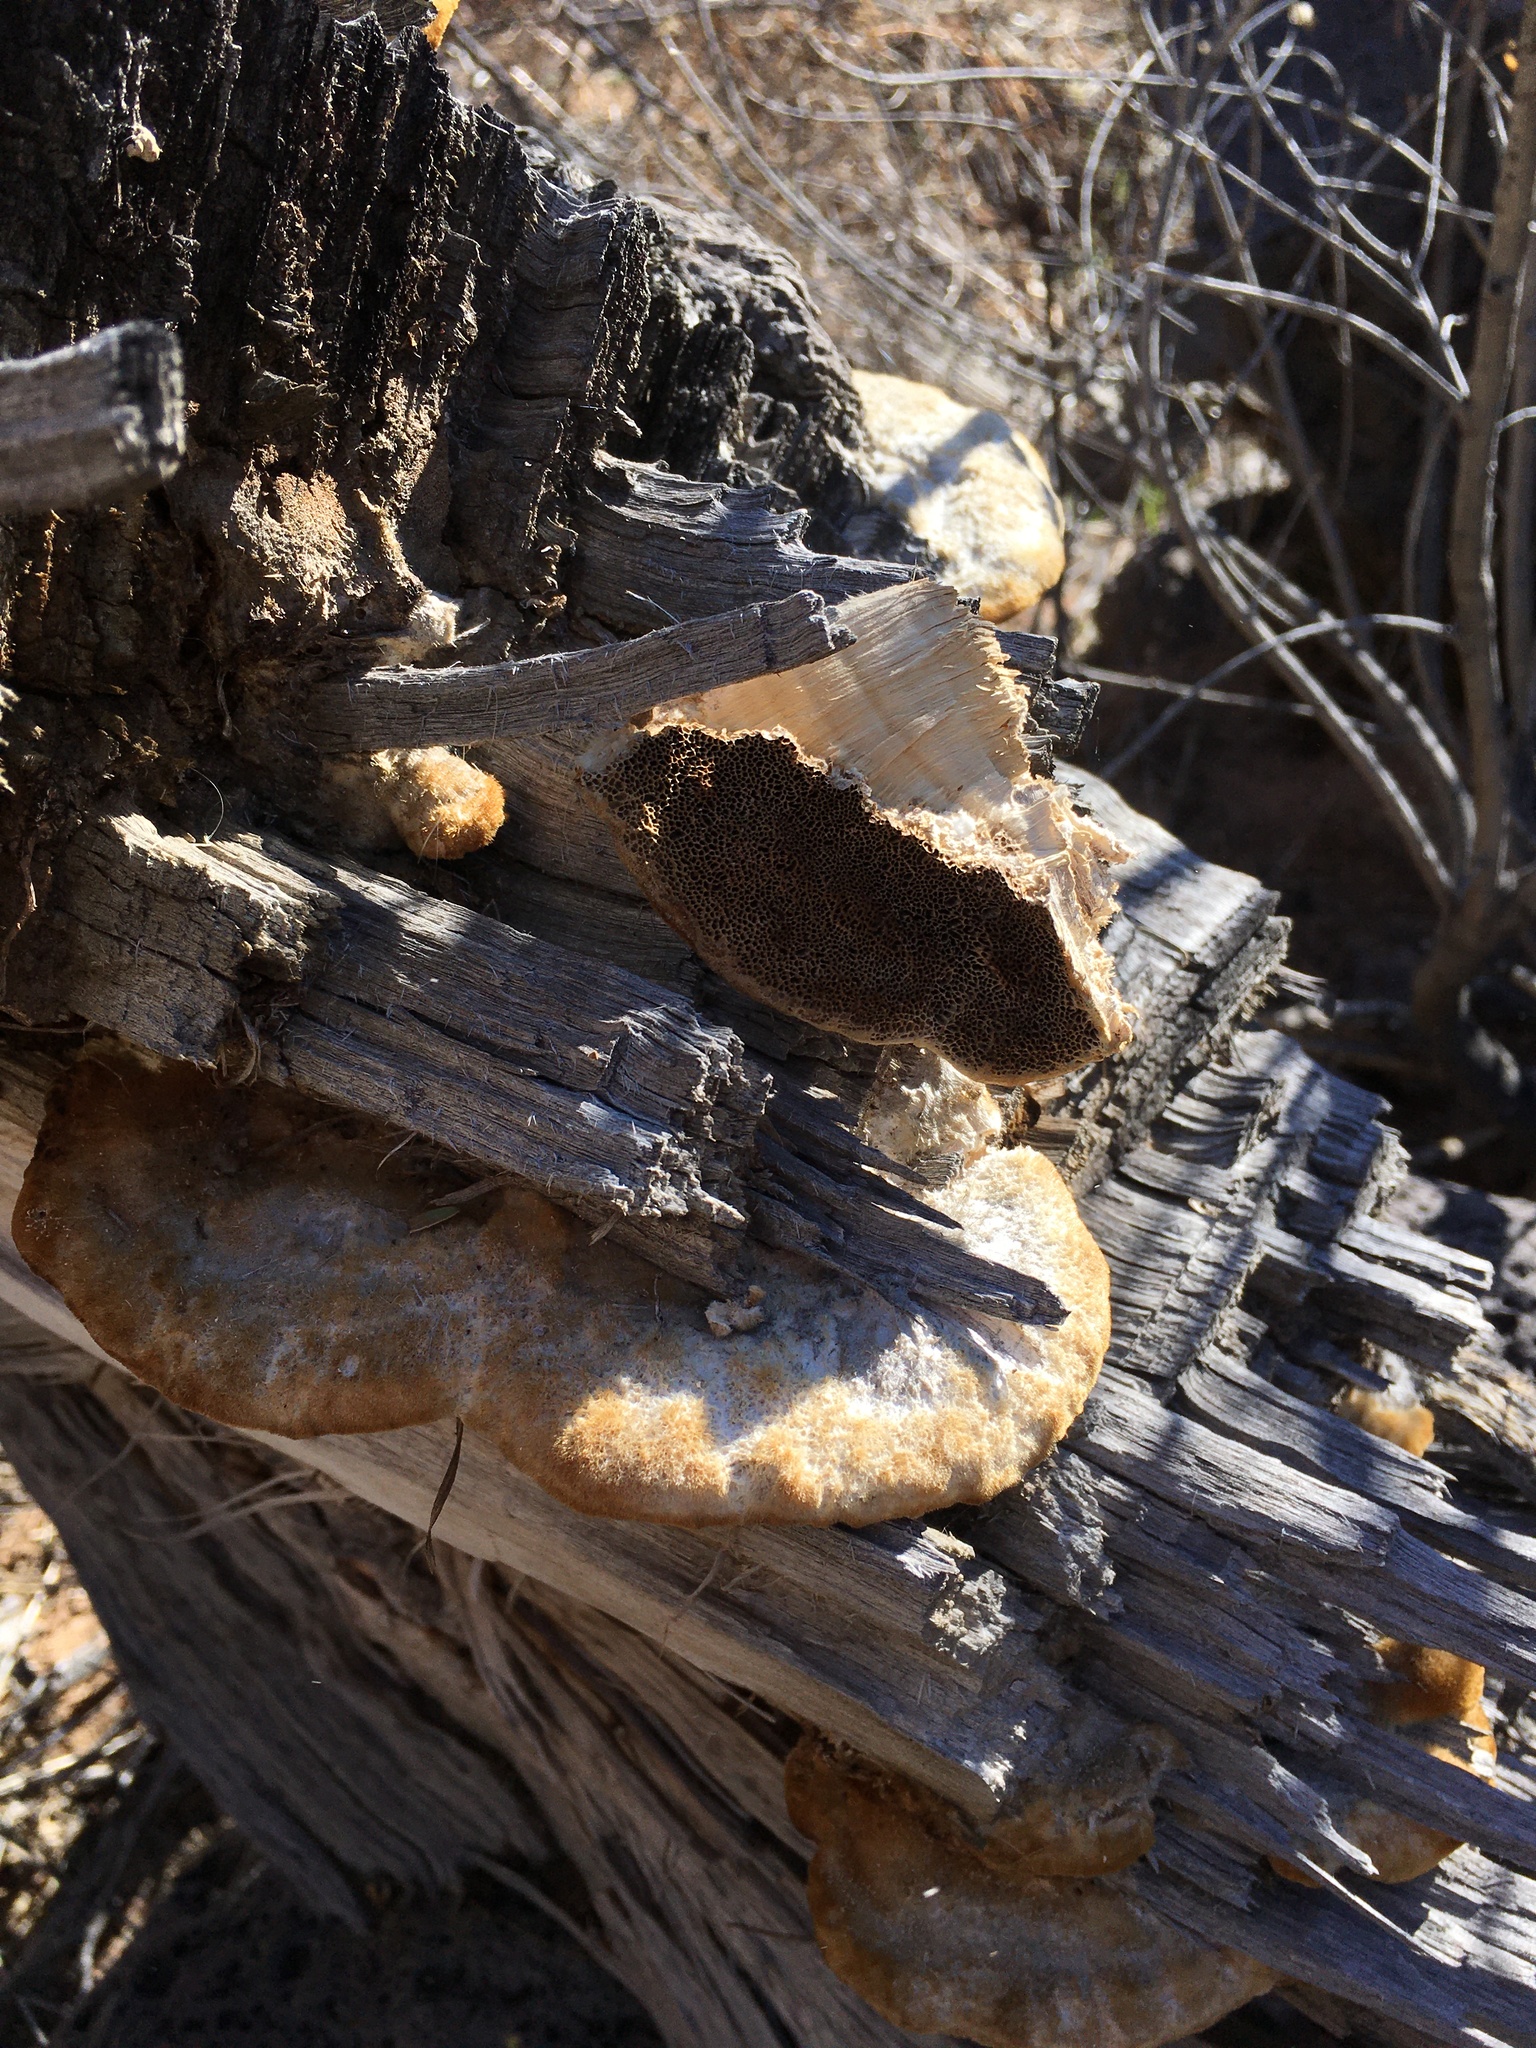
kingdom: Fungi
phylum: Basidiomycota
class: Agaricomycetes
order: Polyporales
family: Polyporaceae
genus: Trametes
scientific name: Trametes trogii
